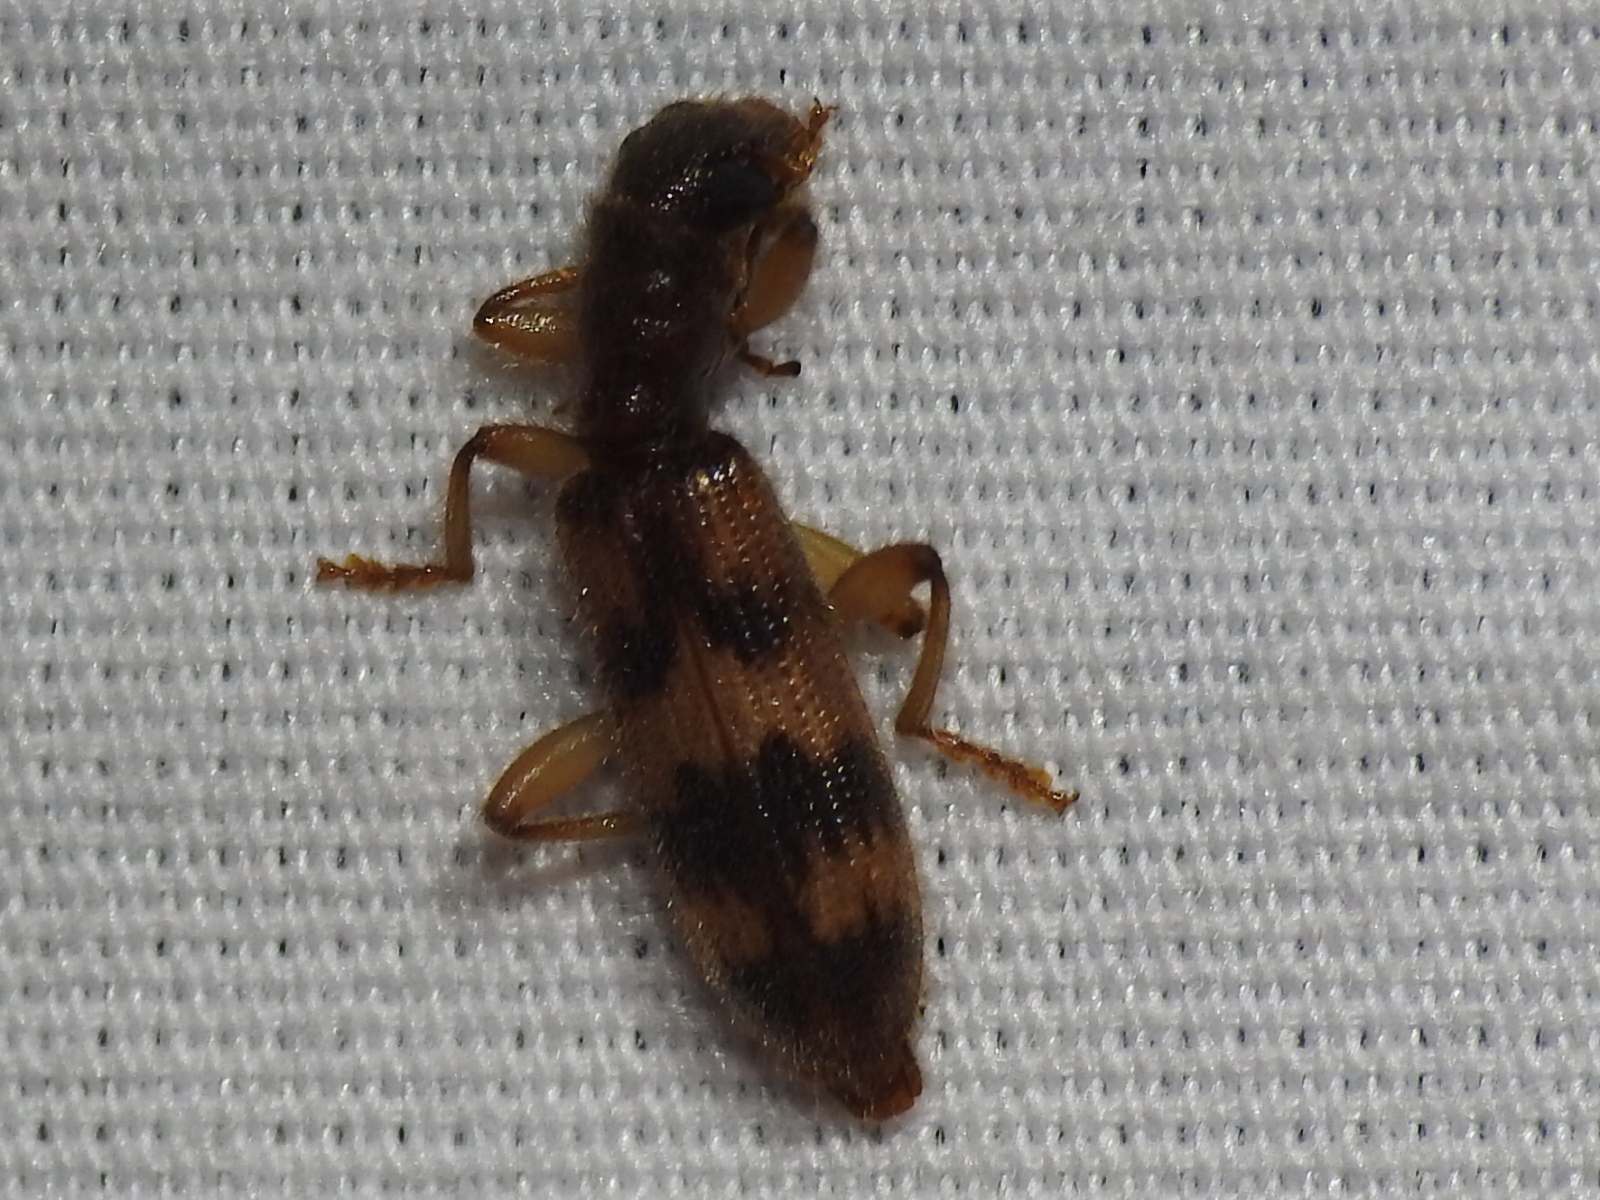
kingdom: Animalia
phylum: Arthropoda
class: Insecta
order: Coleoptera
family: Cleridae
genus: Cymatodera
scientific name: Cymatodera undulata
